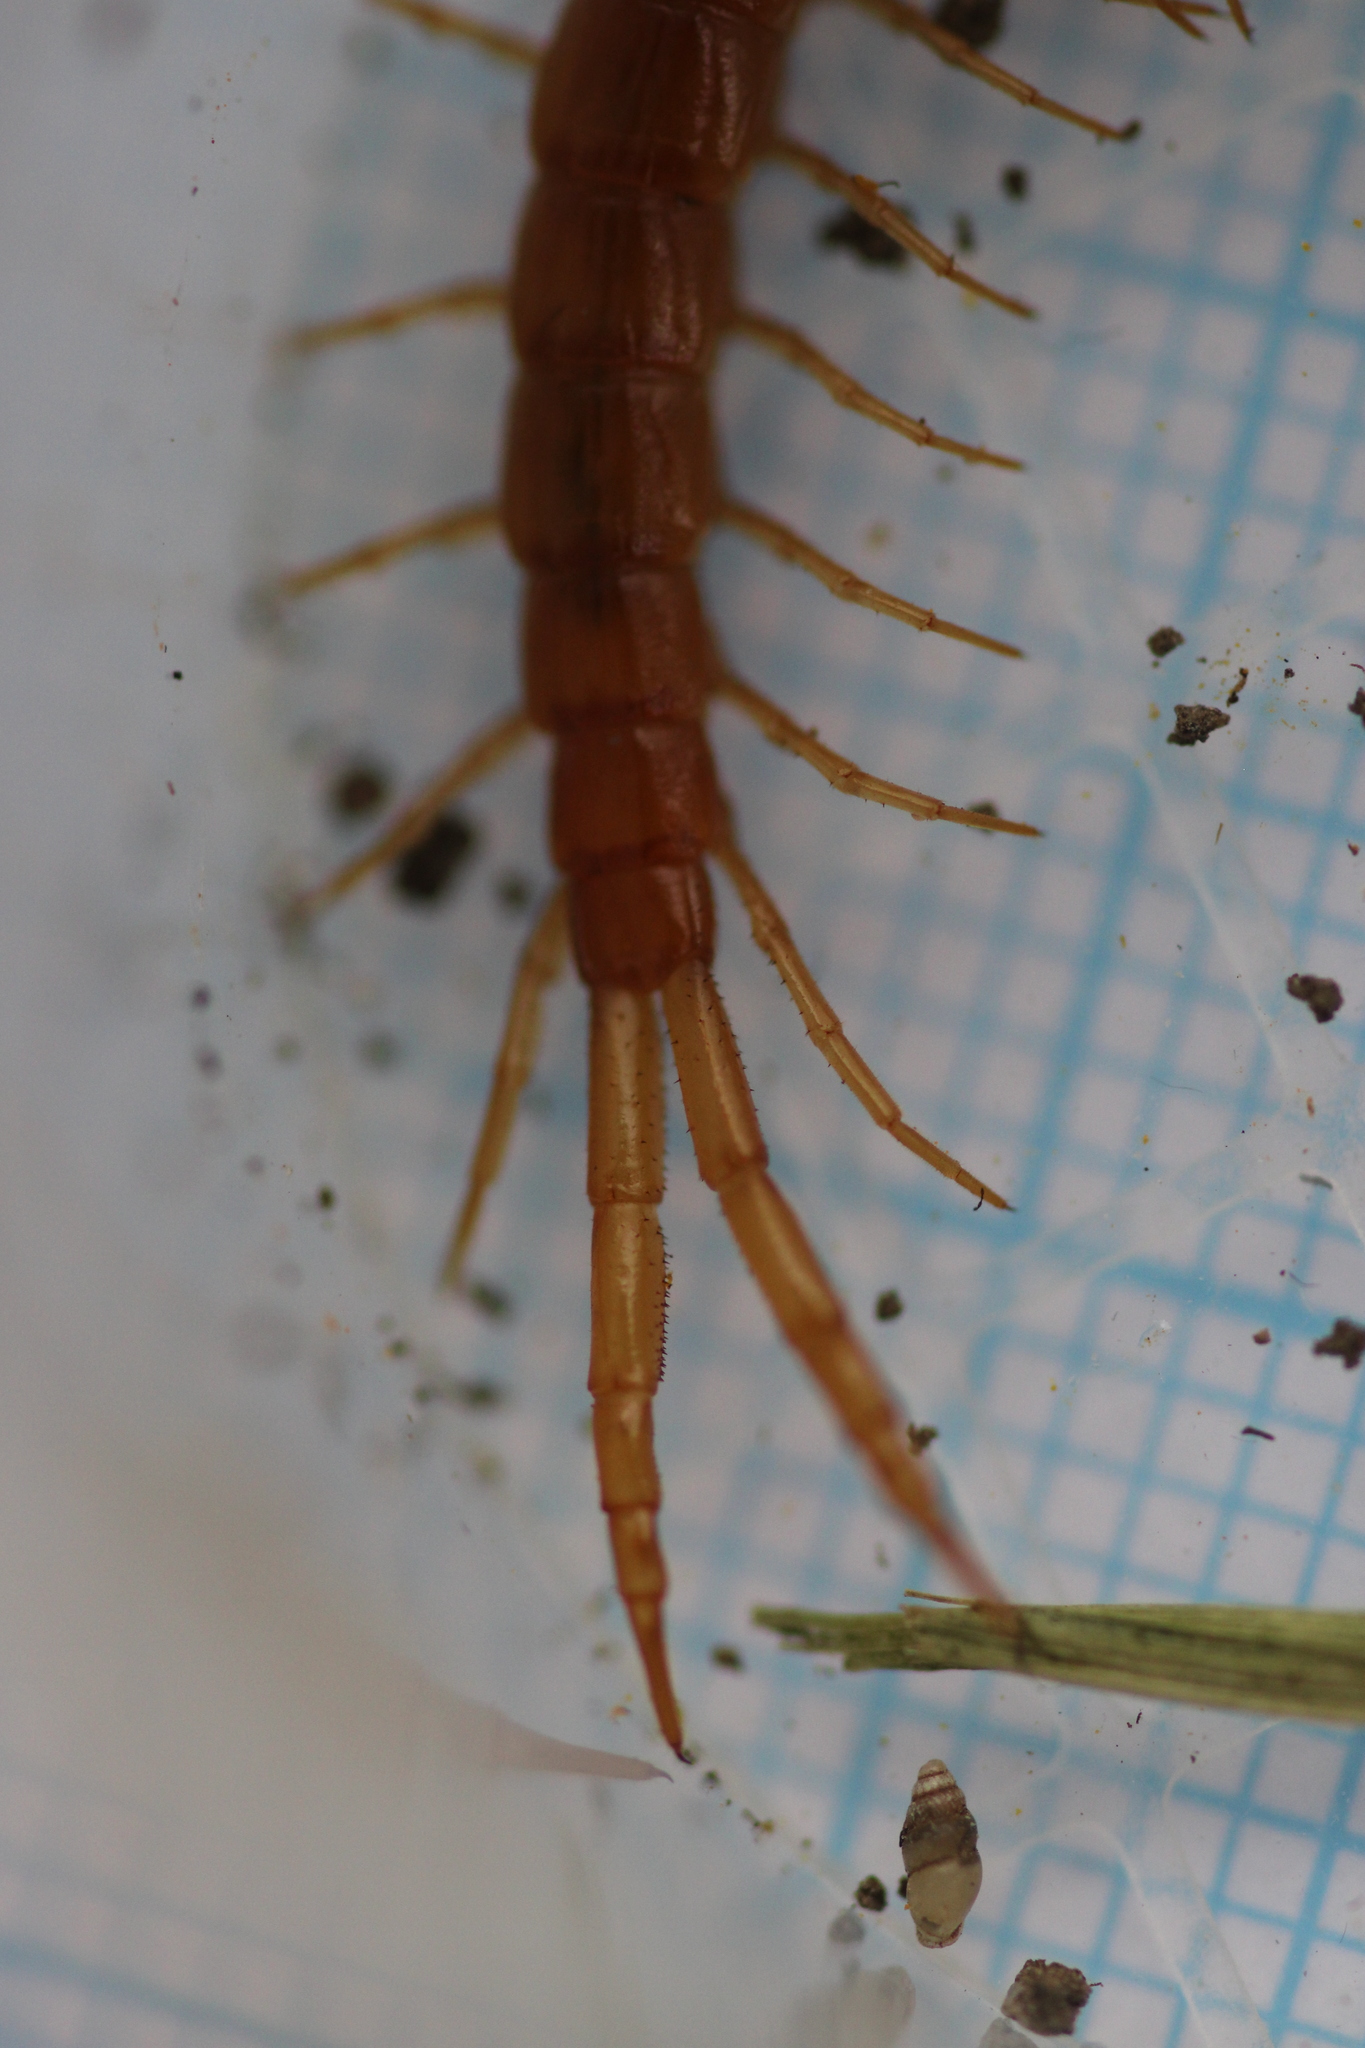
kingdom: Animalia
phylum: Arthropoda
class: Chilopoda
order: Scolopendromorpha
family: Cryptopidae
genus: Cryptops
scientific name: Cryptops anomalans
